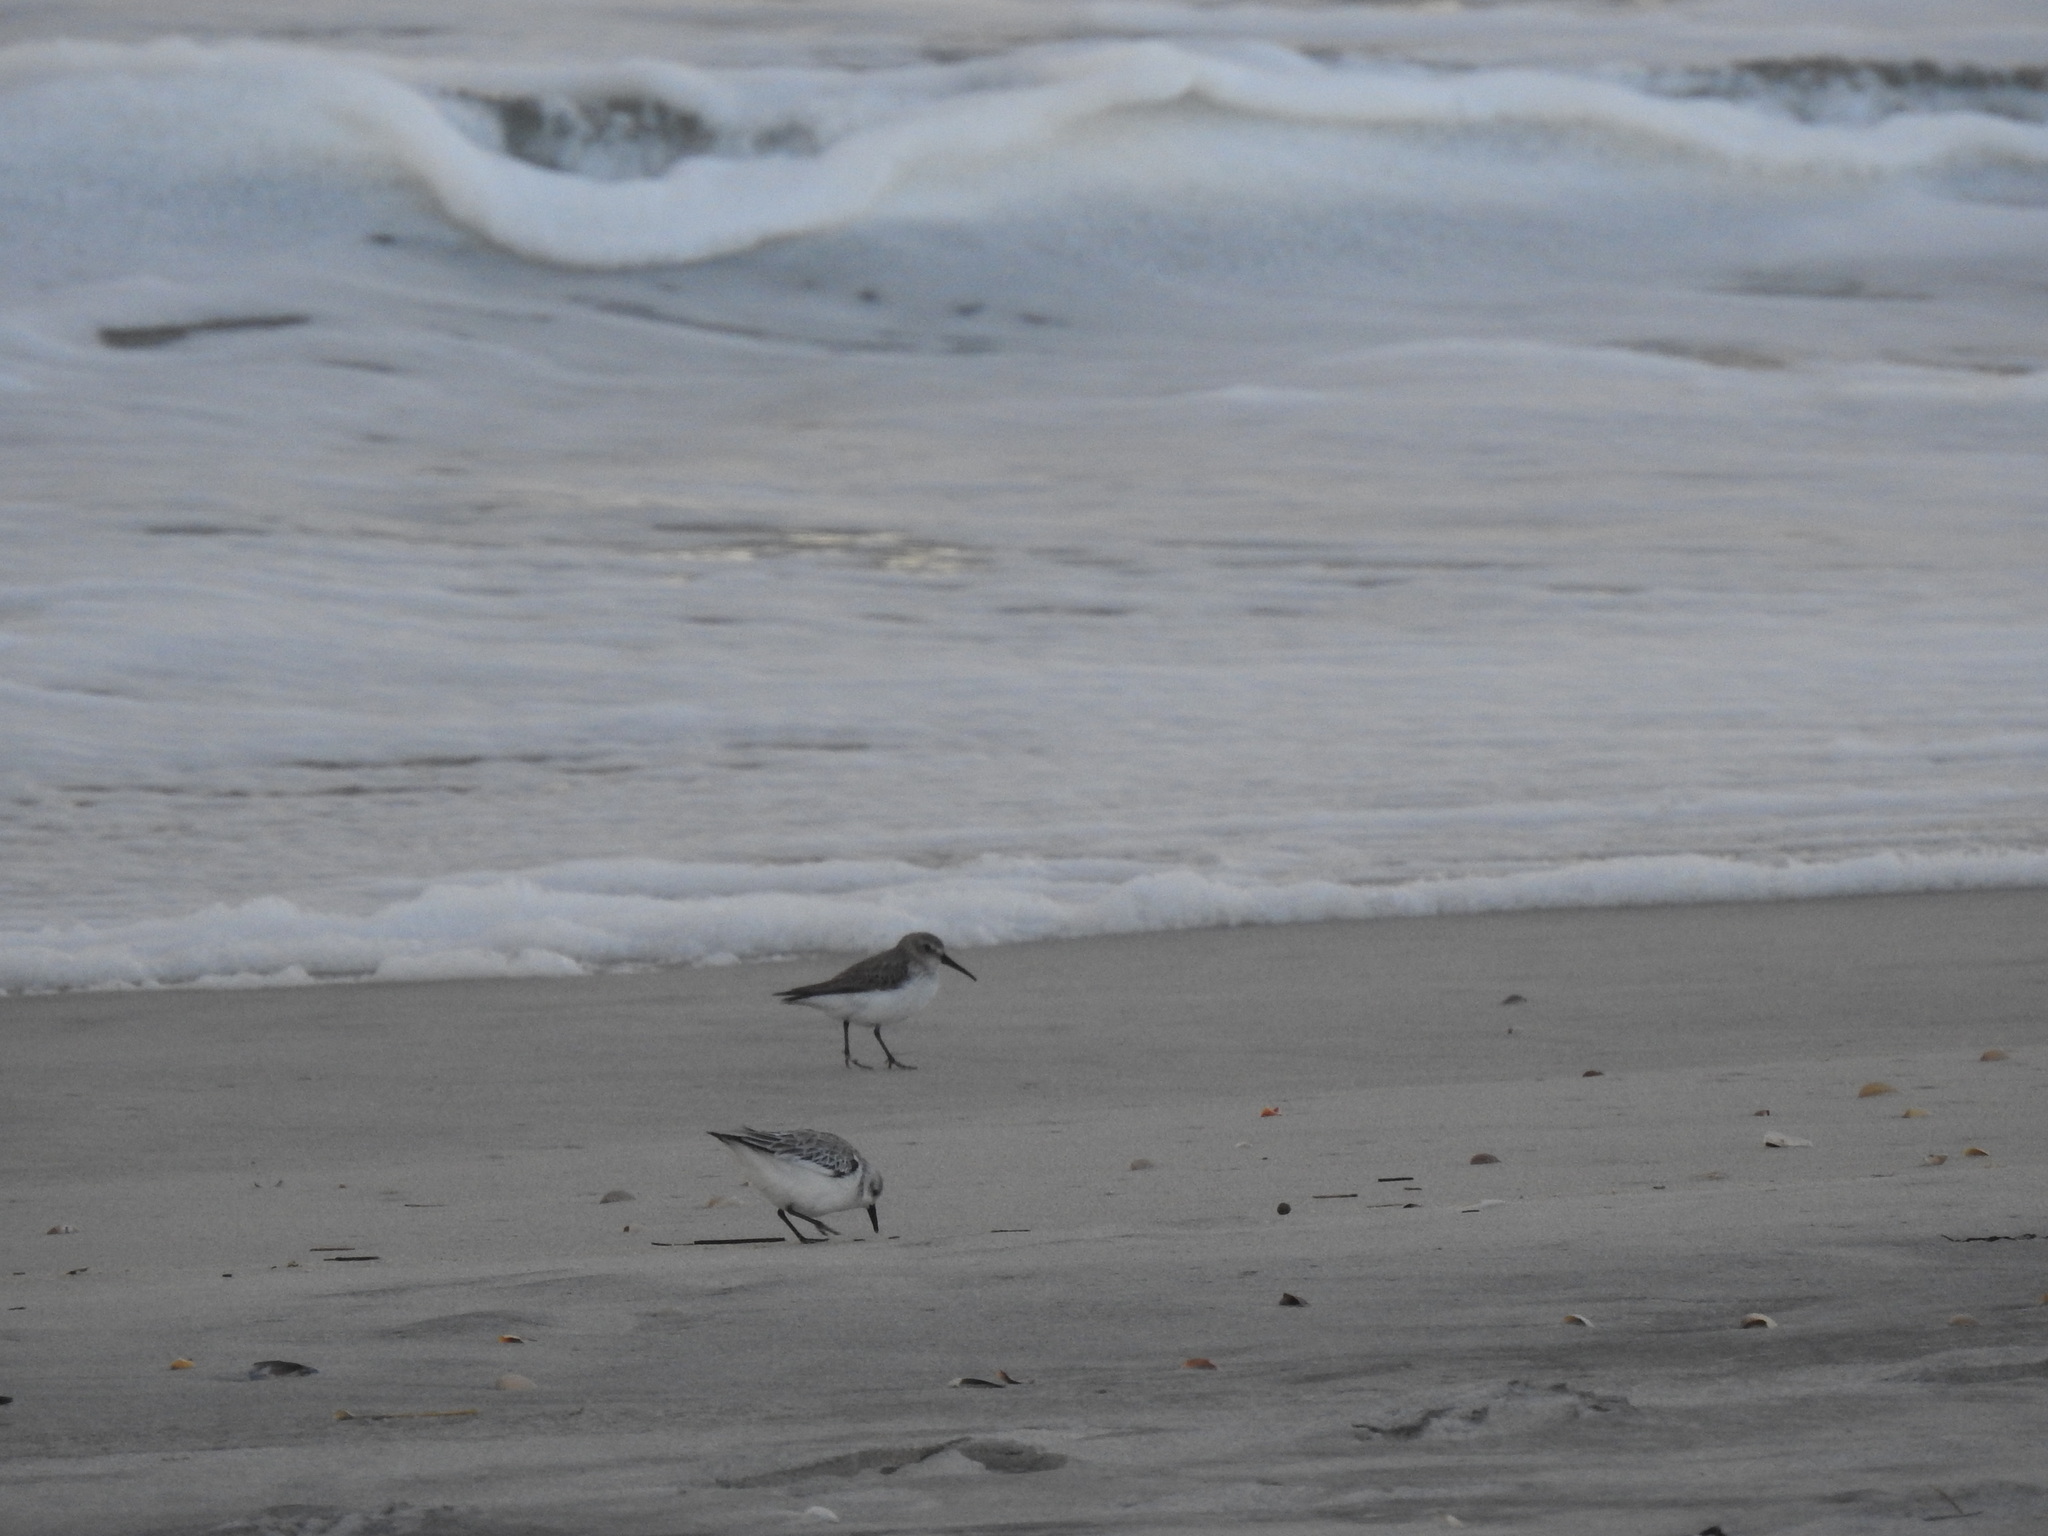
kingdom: Animalia
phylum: Chordata
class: Aves
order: Charadriiformes
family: Scolopacidae
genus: Calidris
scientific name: Calidris alpina
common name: Dunlin
